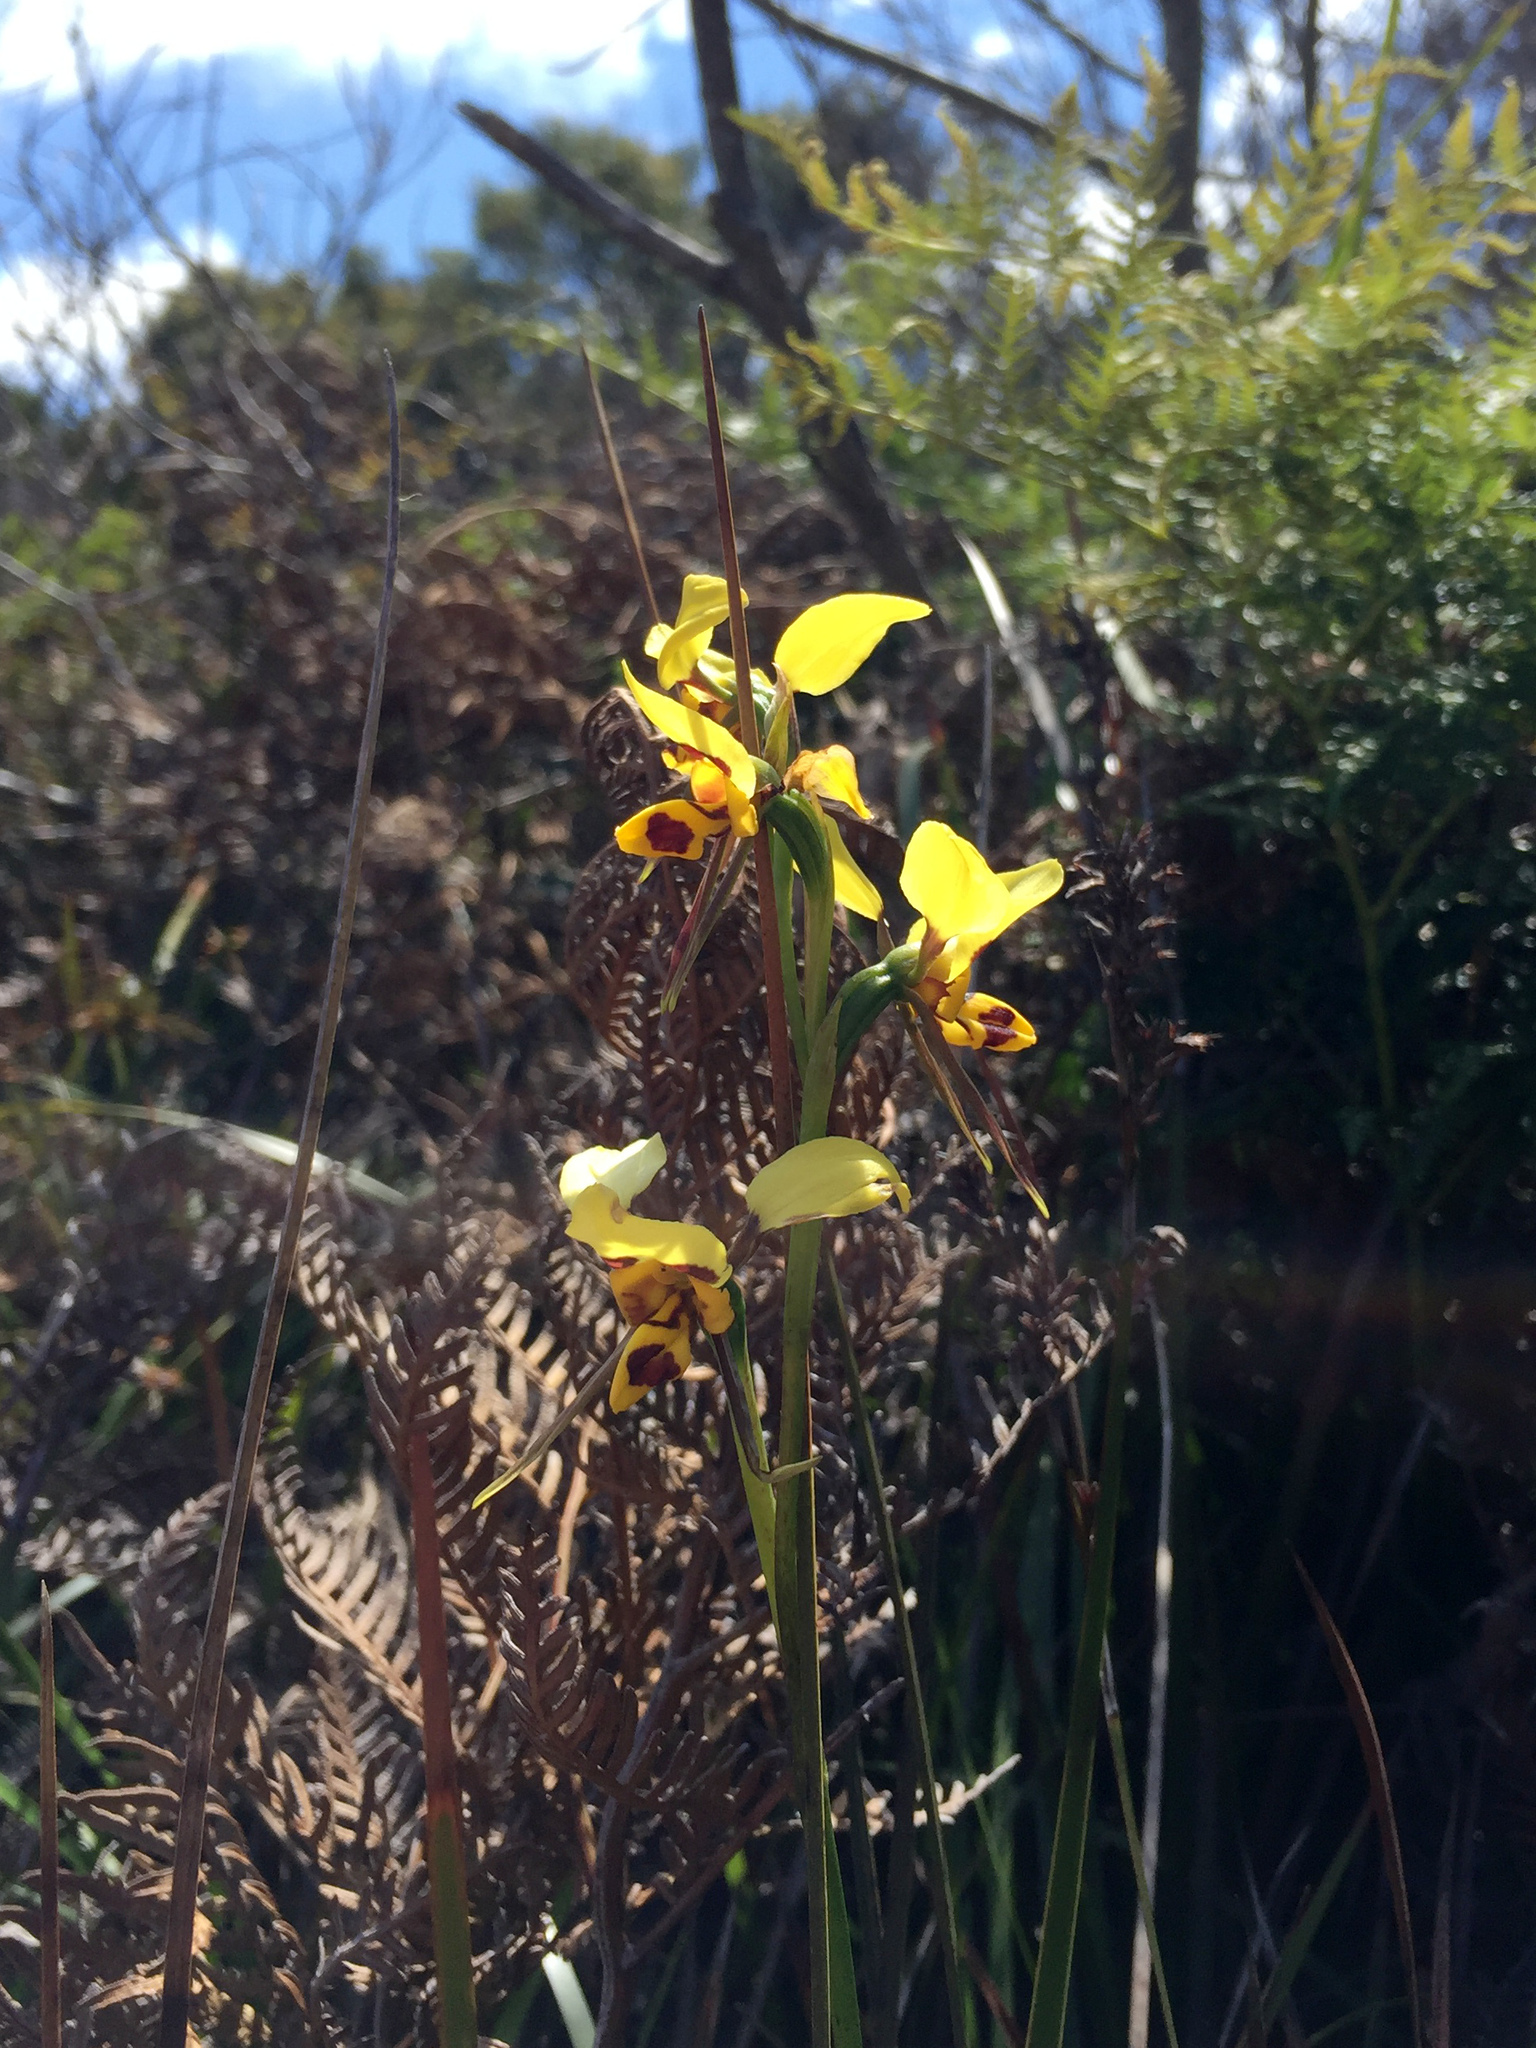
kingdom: Plantae
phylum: Tracheophyta
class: Liliopsida
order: Asparagales
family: Orchidaceae
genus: Diuris
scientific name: Diuris sulphurea
